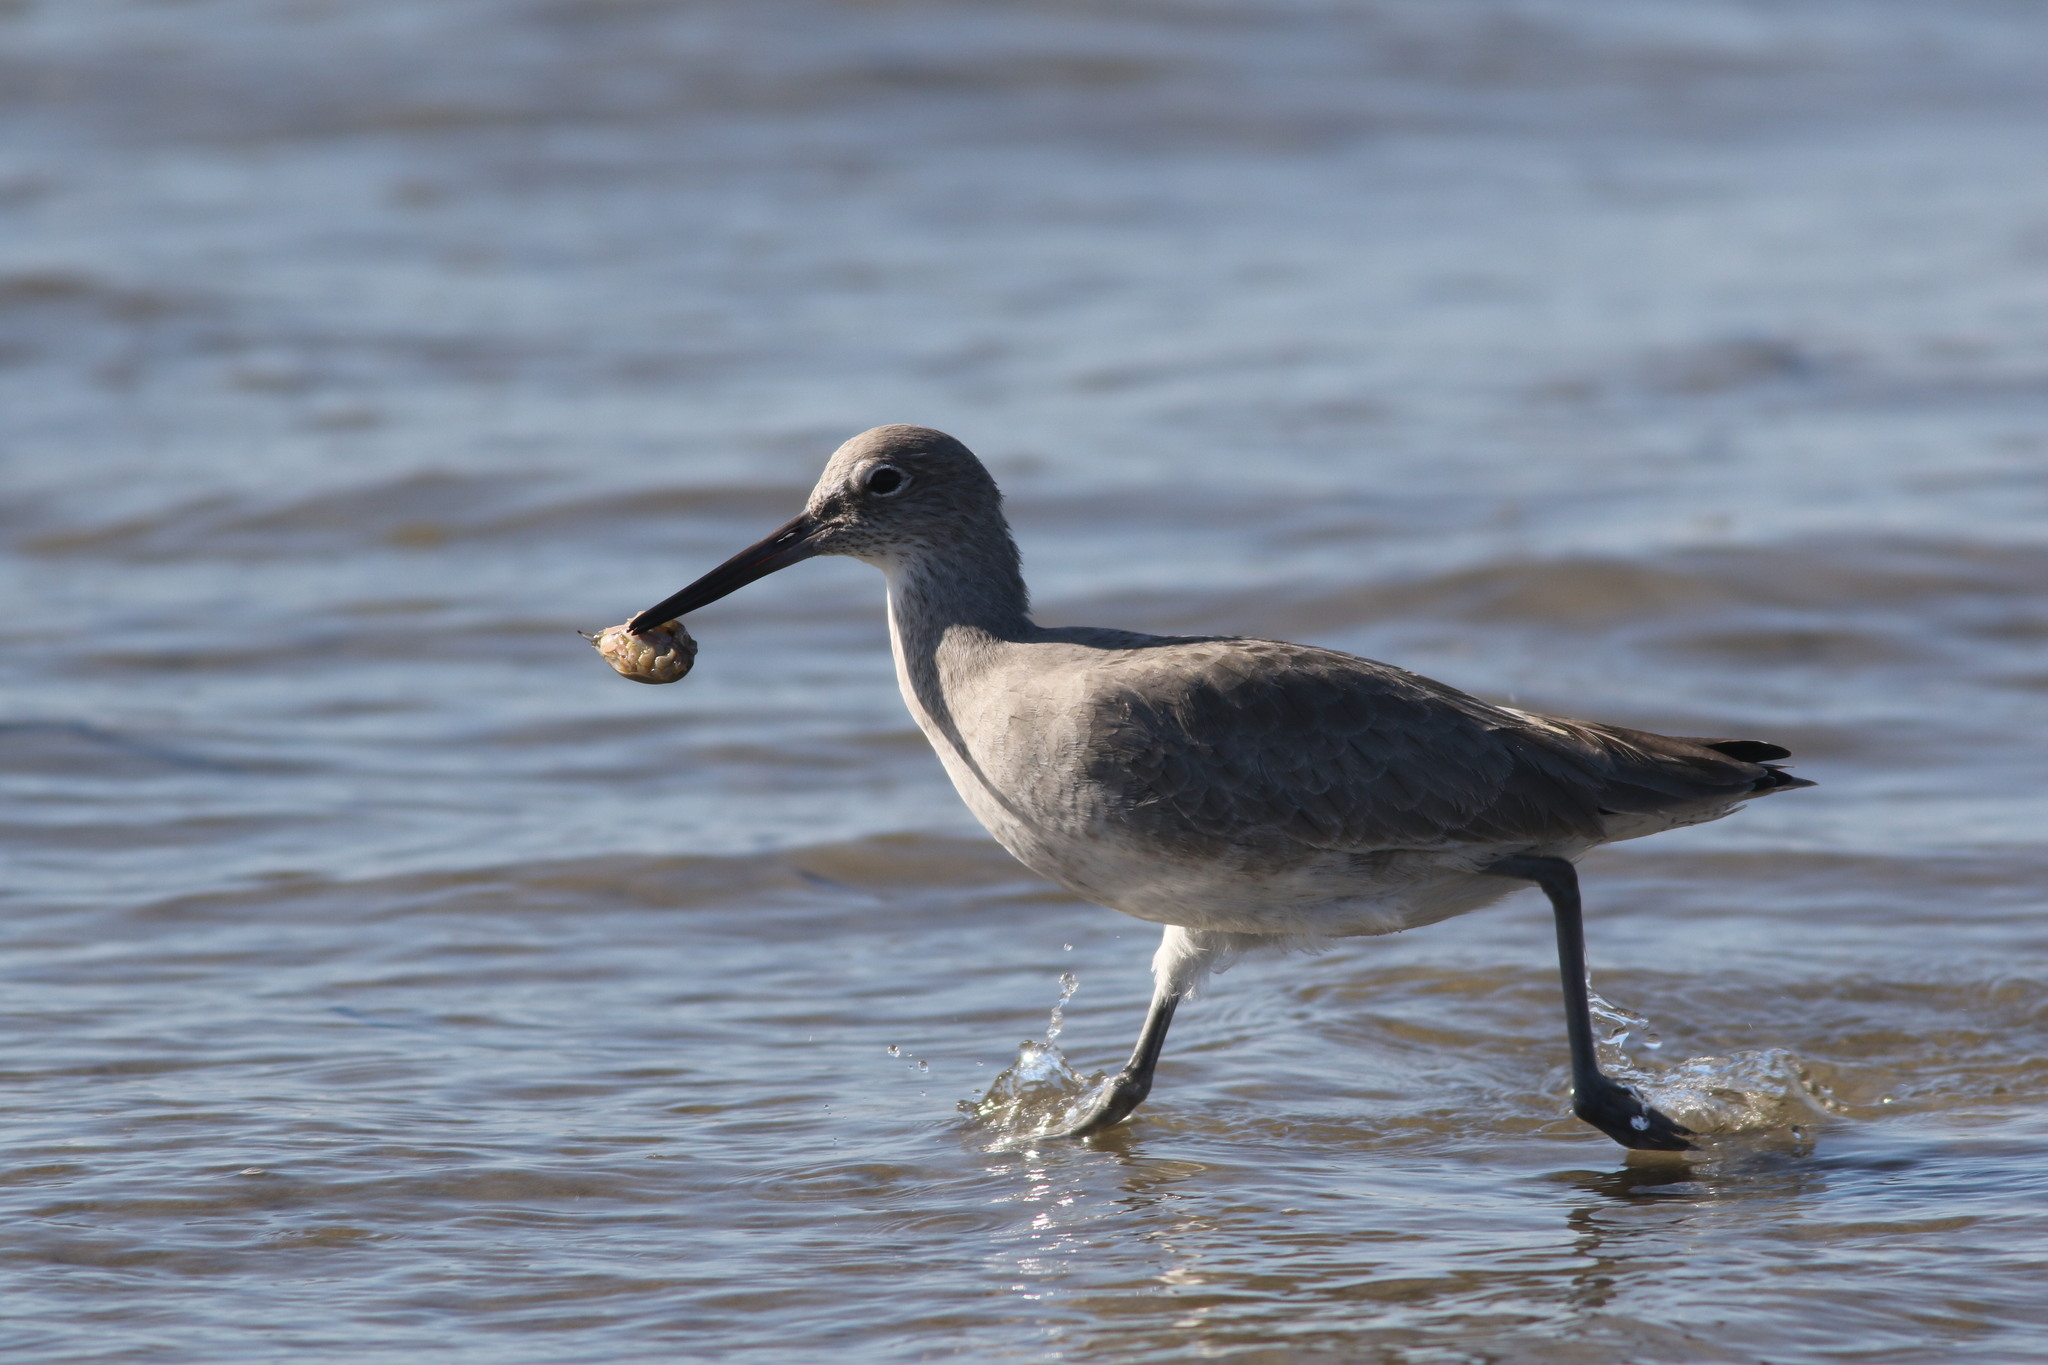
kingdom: Animalia
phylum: Arthropoda
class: Malacostraca
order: Decapoda
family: Hippidae
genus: Emerita
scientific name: Emerita analoga
